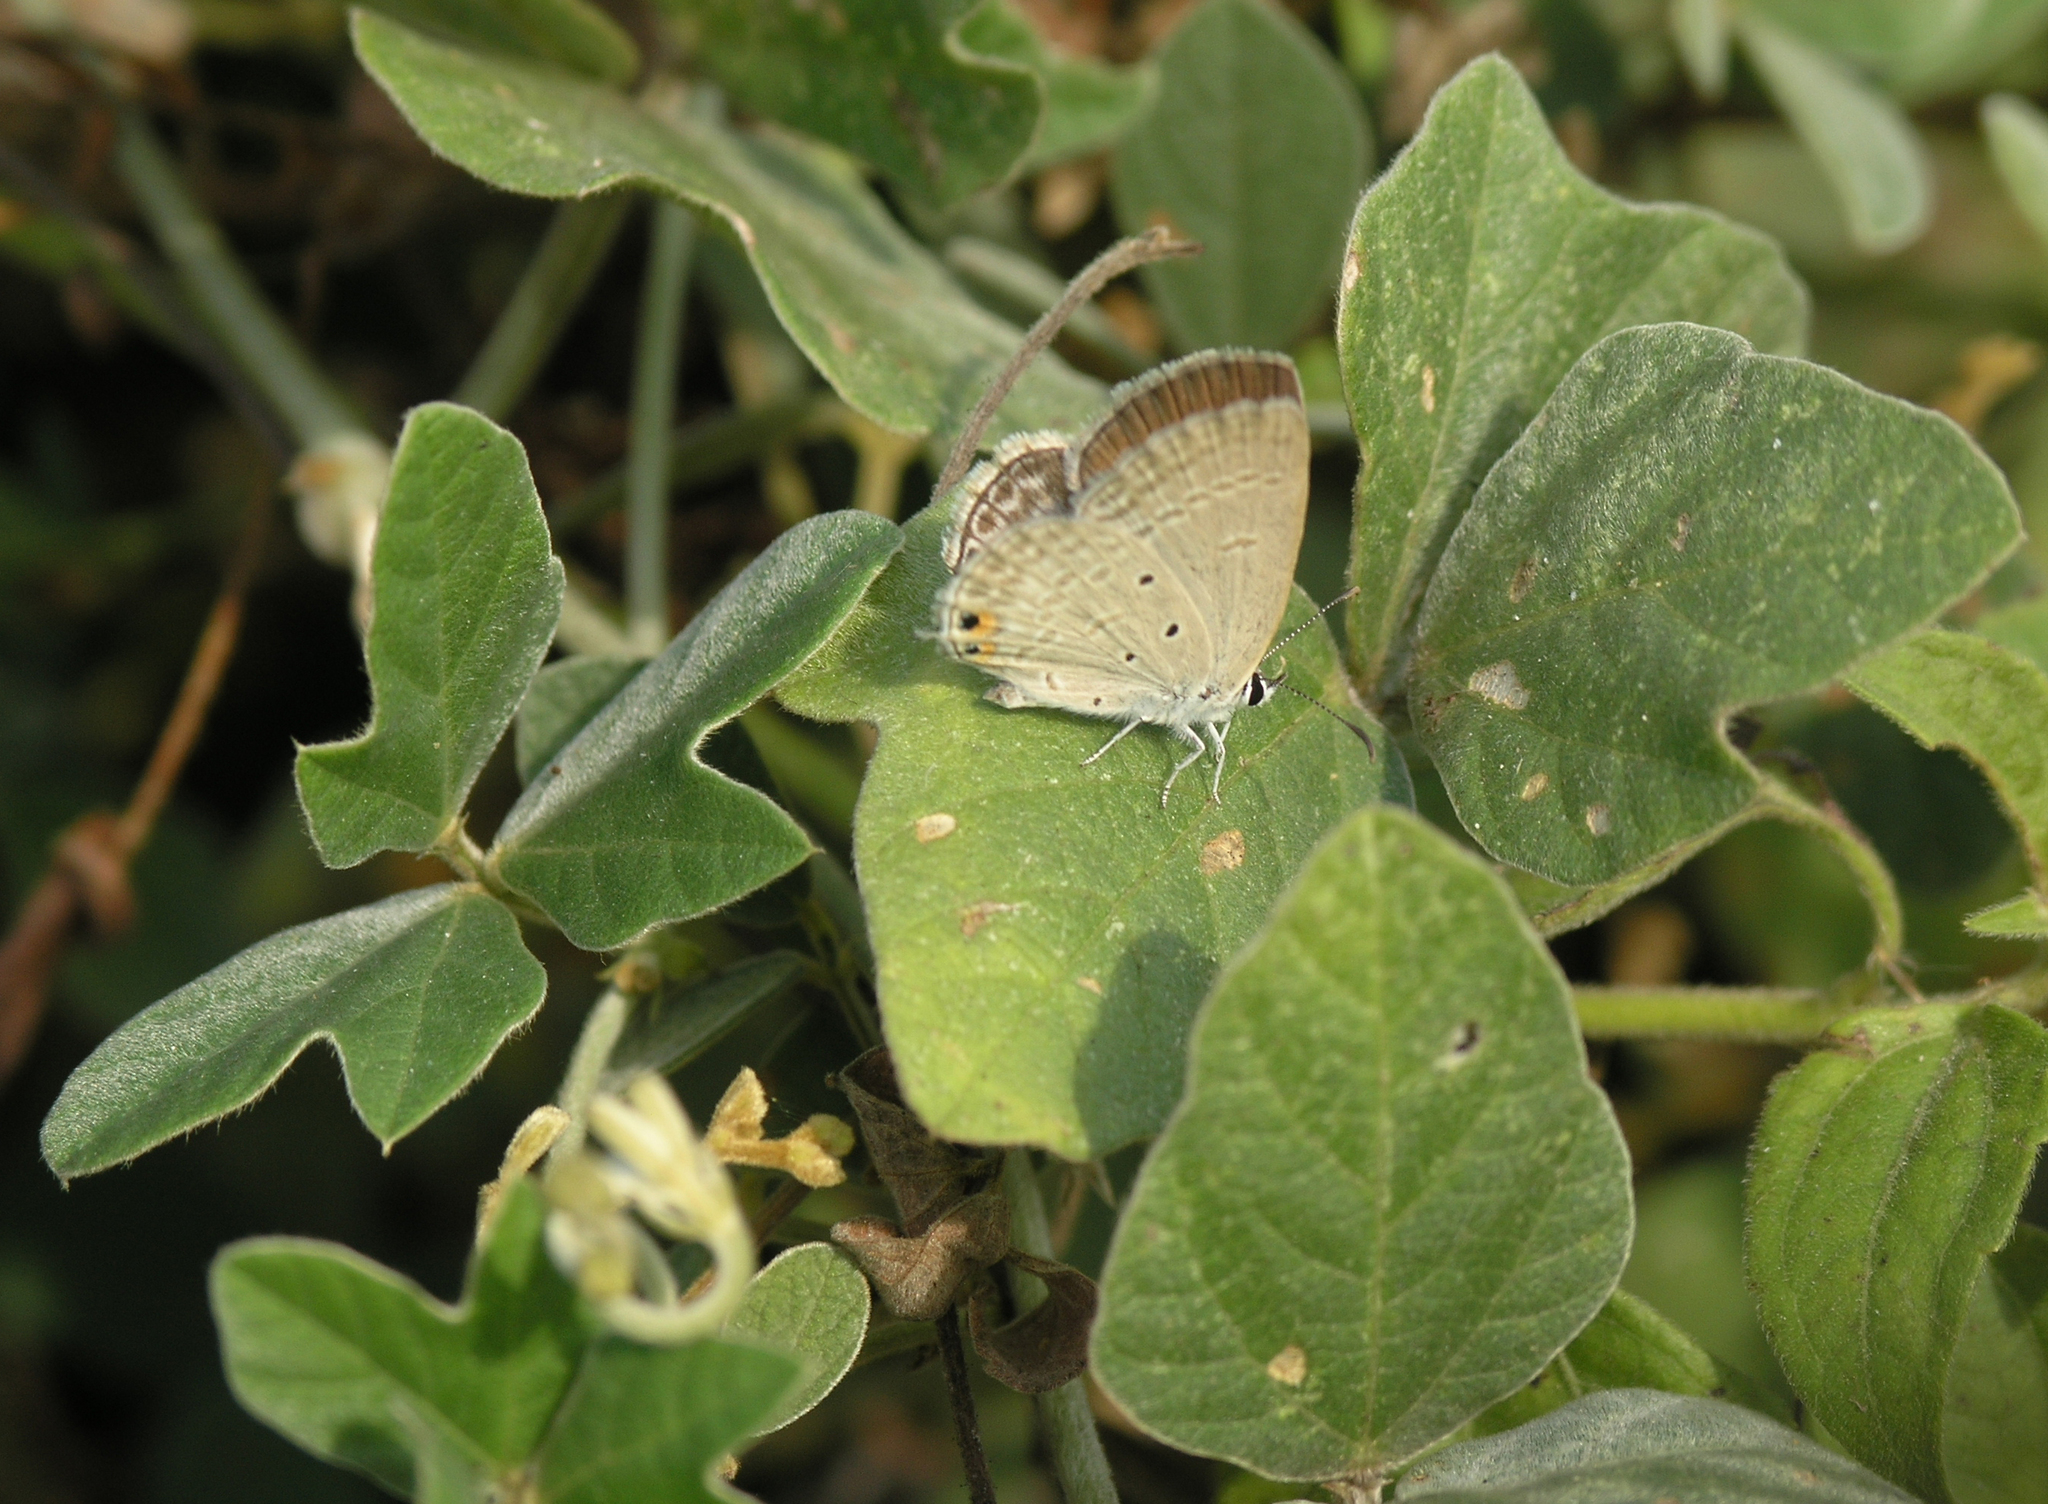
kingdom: Animalia
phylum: Arthropoda
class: Insecta
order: Lepidoptera
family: Lycaenidae
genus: Euchrysops
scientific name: Euchrysops cnejus
